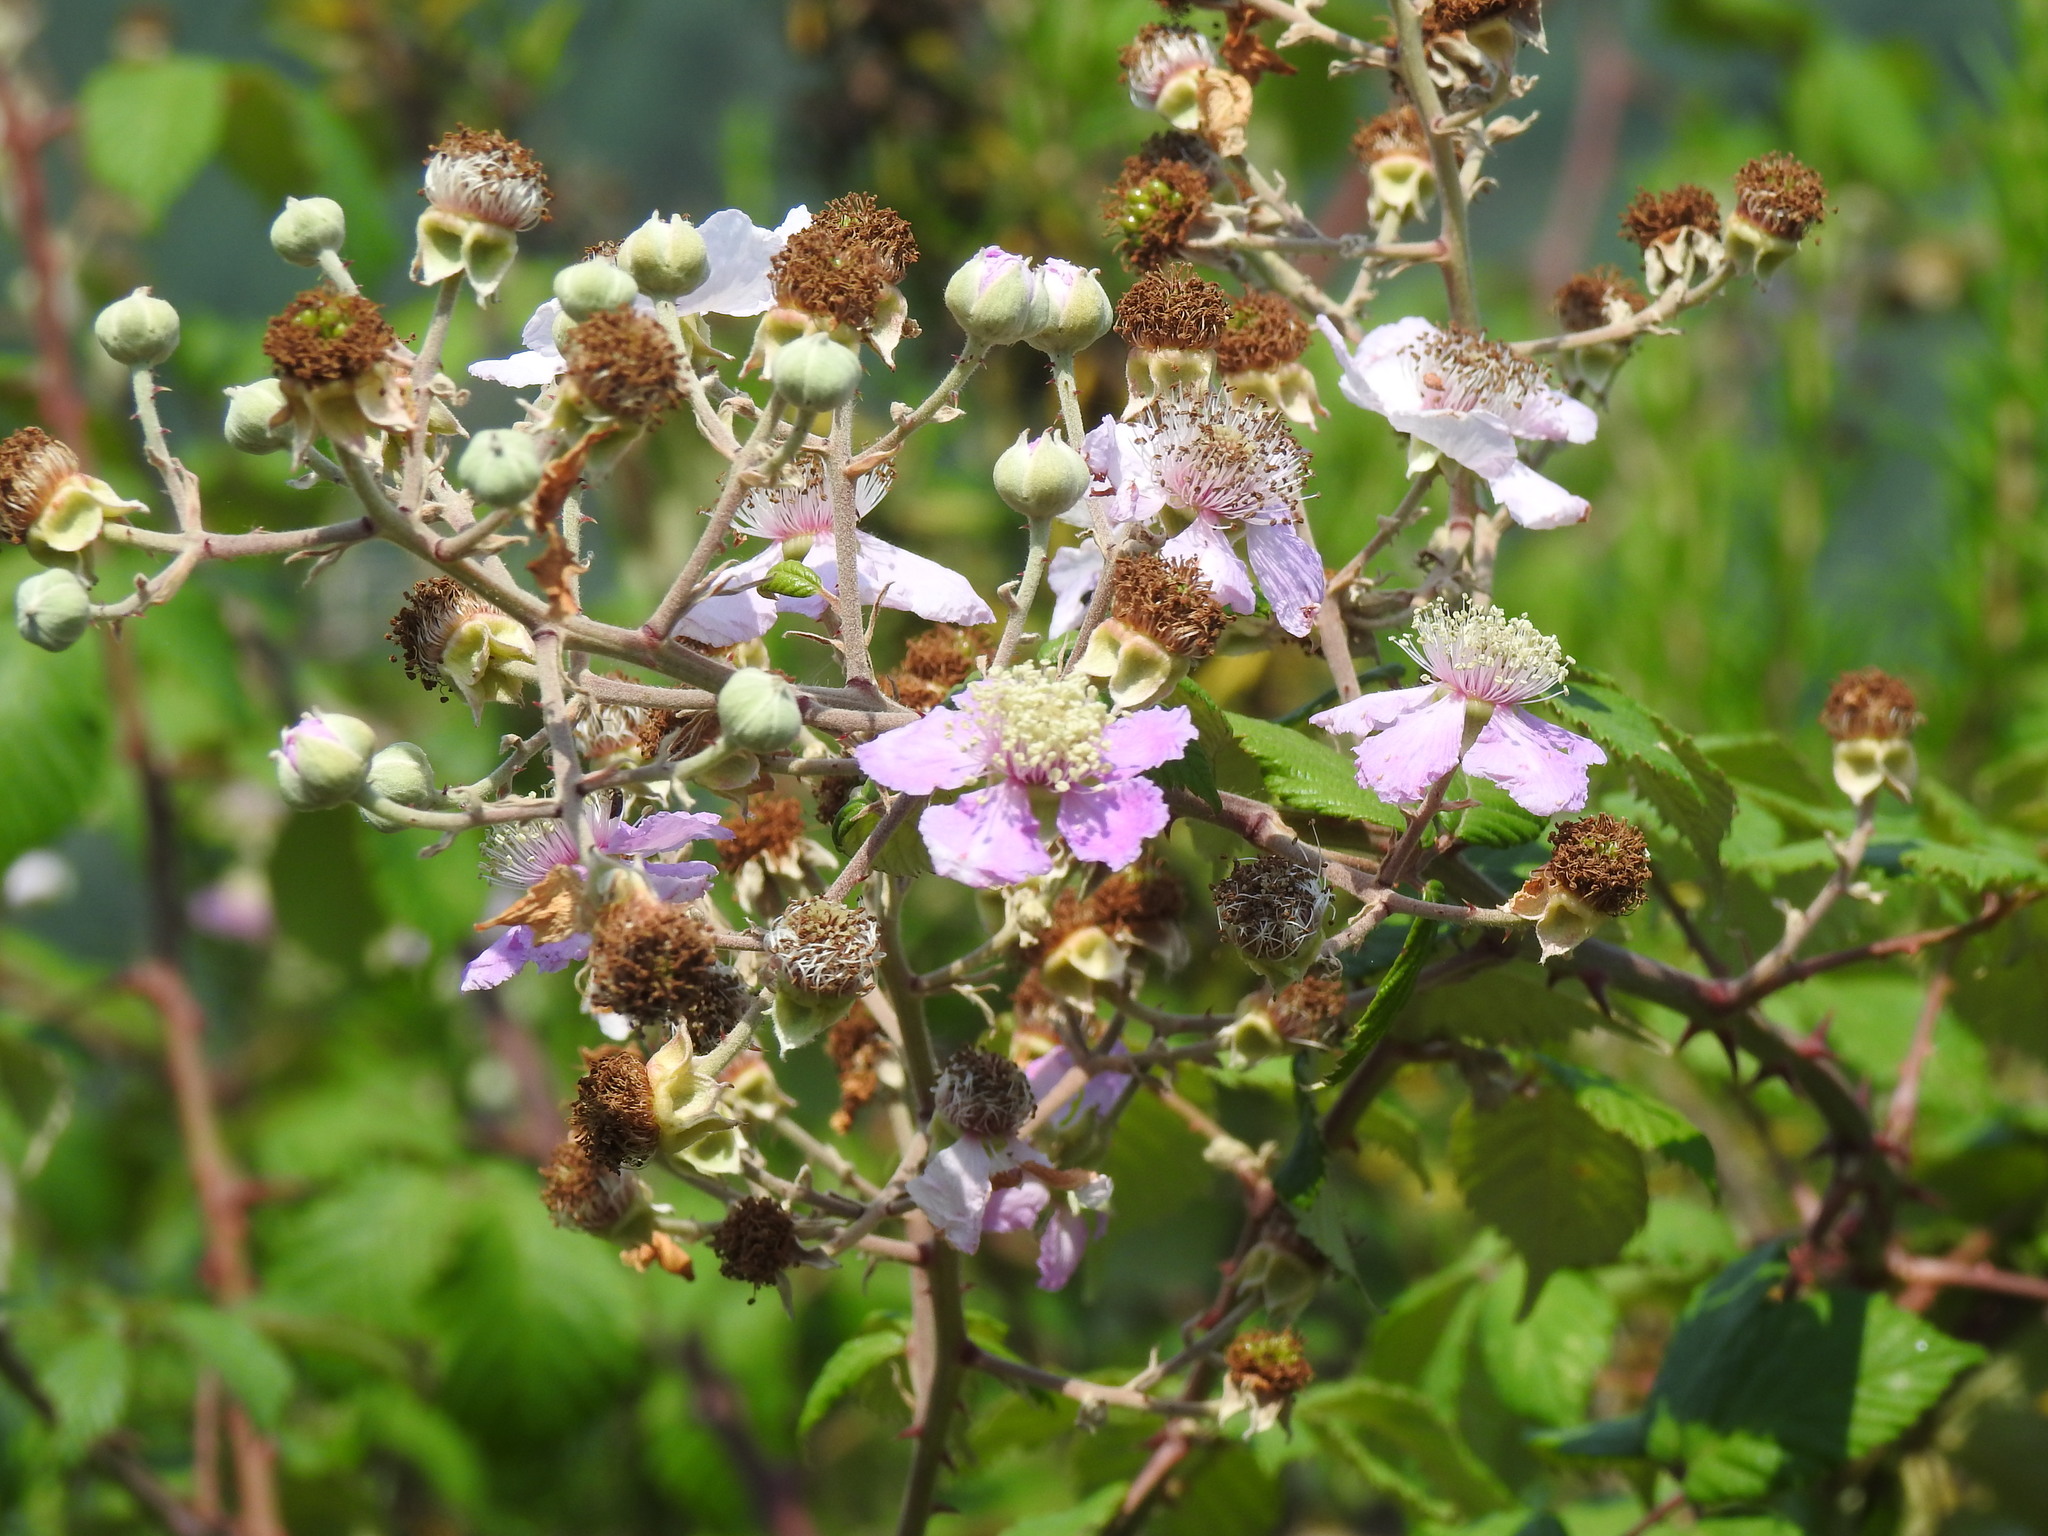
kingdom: Plantae
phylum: Tracheophyta
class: Magnoliopsida
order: Rosales
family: Rosaceae
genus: Rubus
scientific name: Rubus ulmifolius
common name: Elmleaf blackberry
